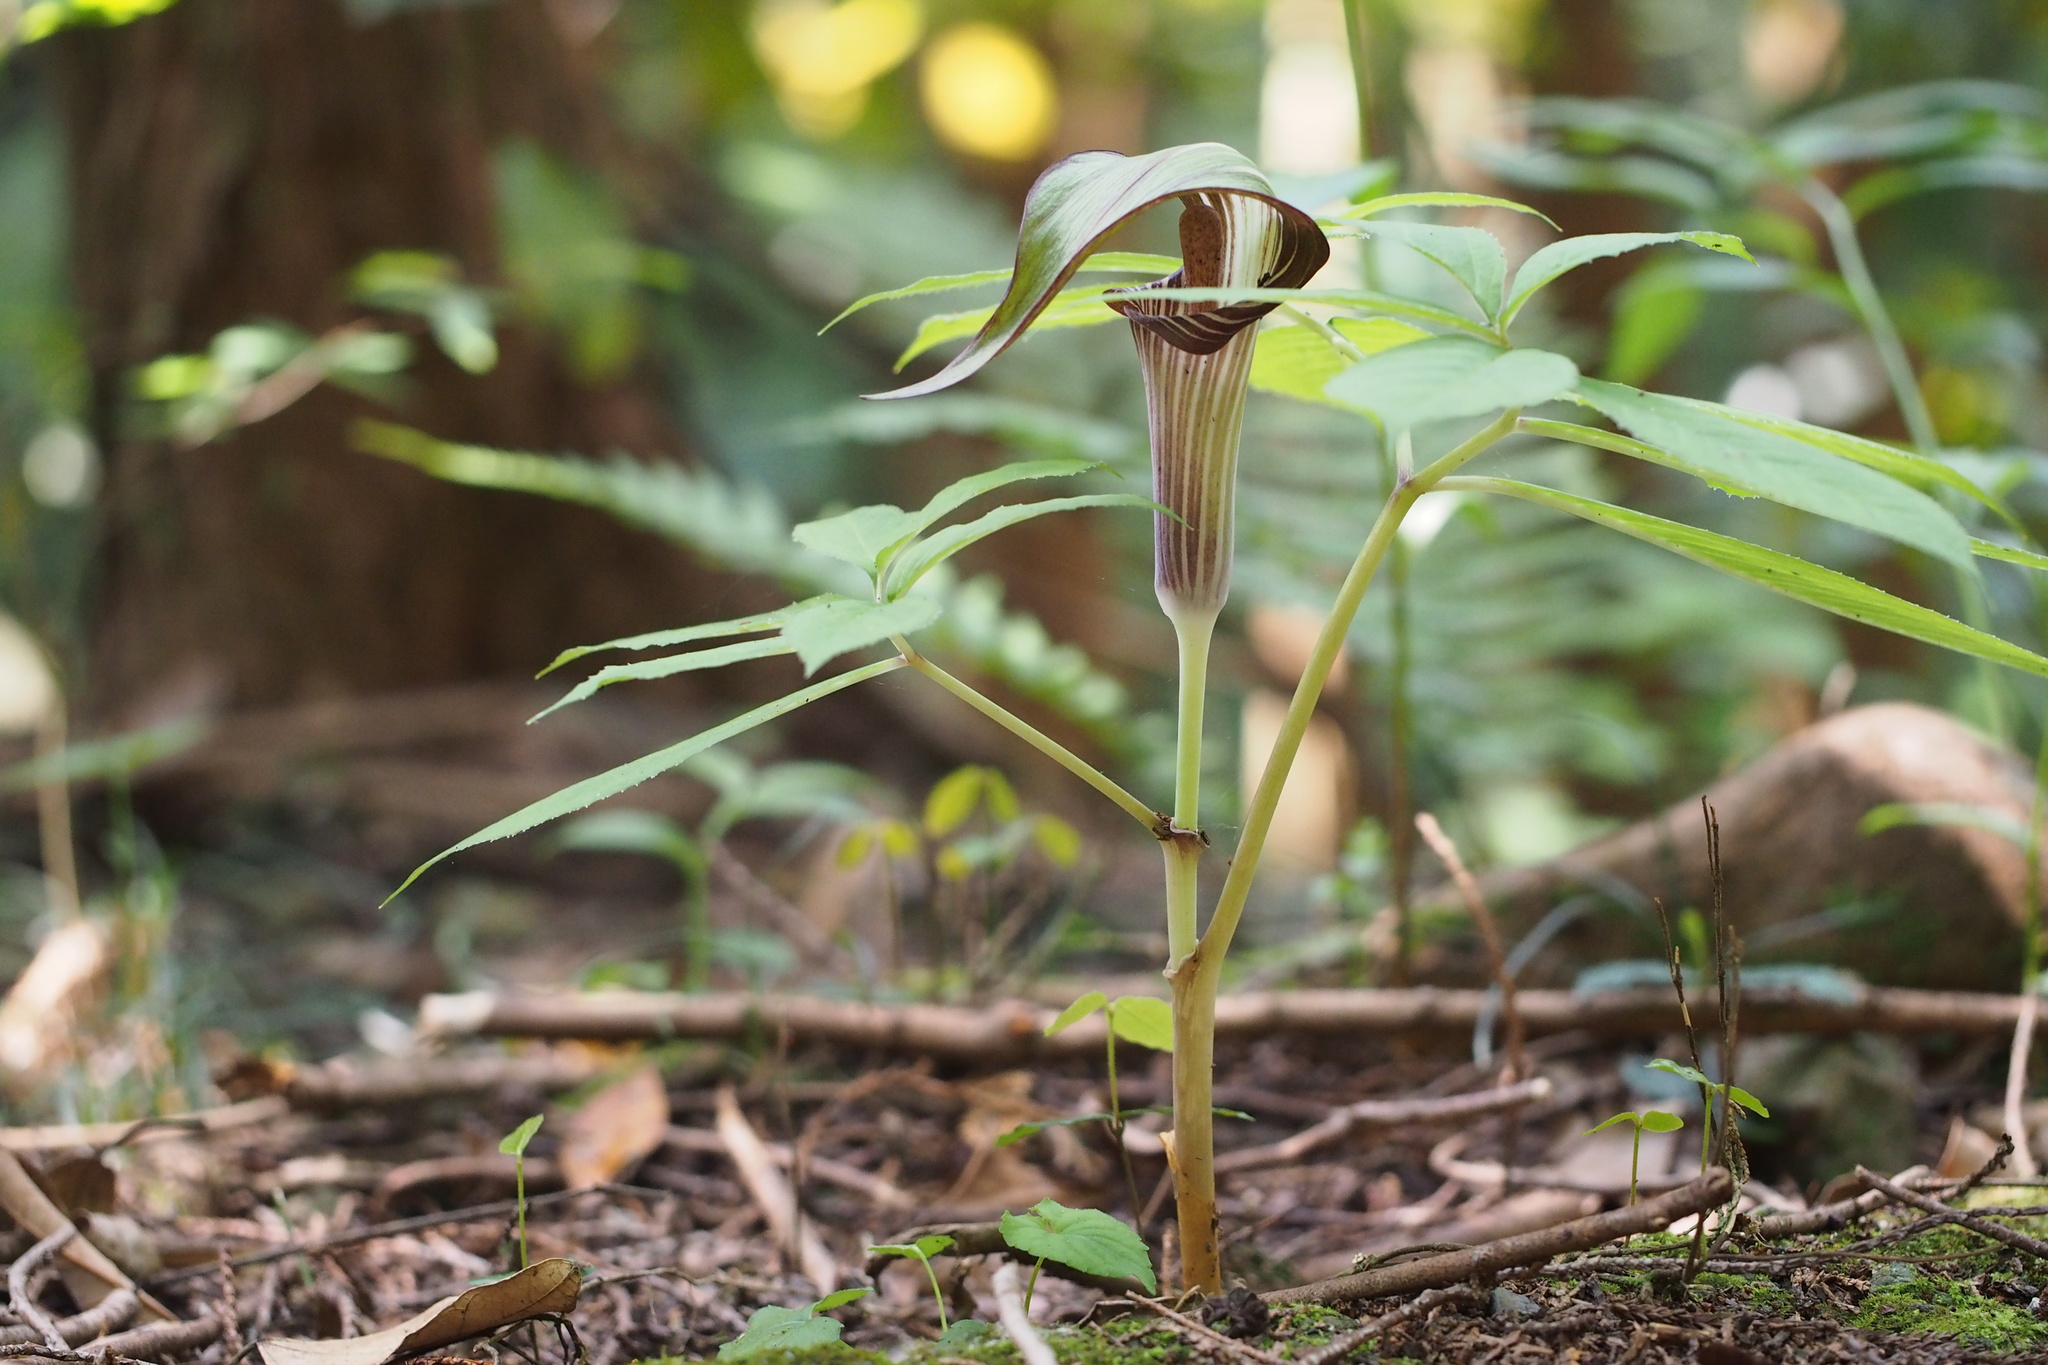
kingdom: Plantae
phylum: Tracheophyta
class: Liliopsida
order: Alismatales
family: Araceae
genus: Arisaema
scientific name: Arisaema serratum
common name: Japanese arisaema
